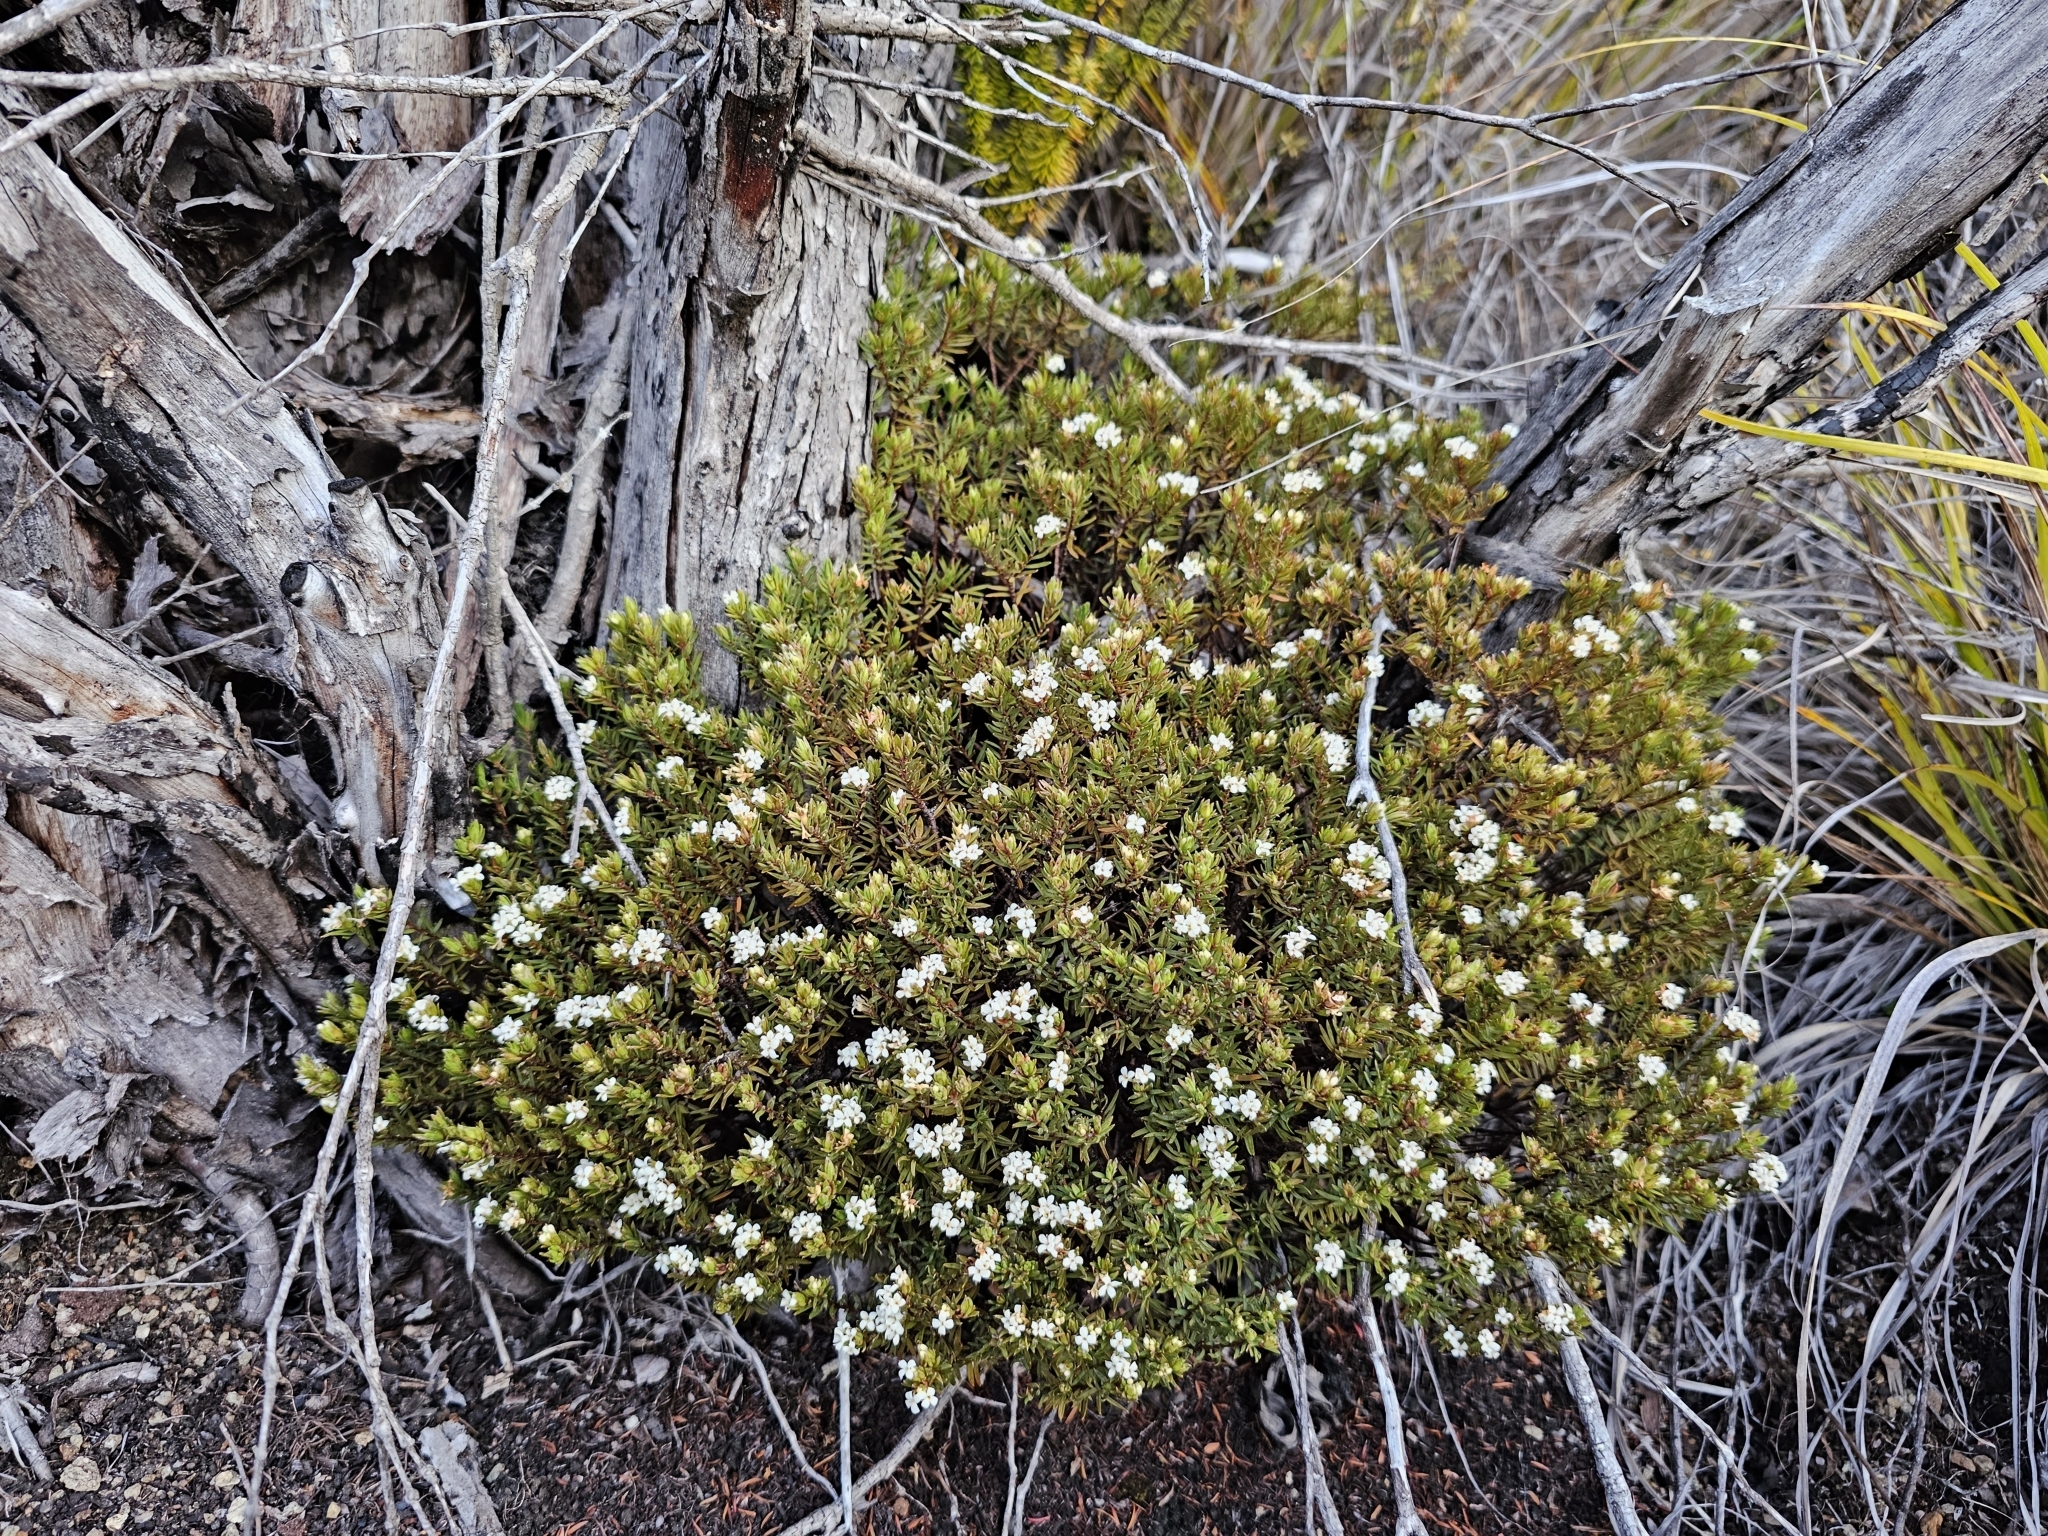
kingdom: Plantae
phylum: Tracheophyta
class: Magnoliopsida
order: Malvales
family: Thymelaeaceae
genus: Pimelea
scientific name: Pimelea suteri
